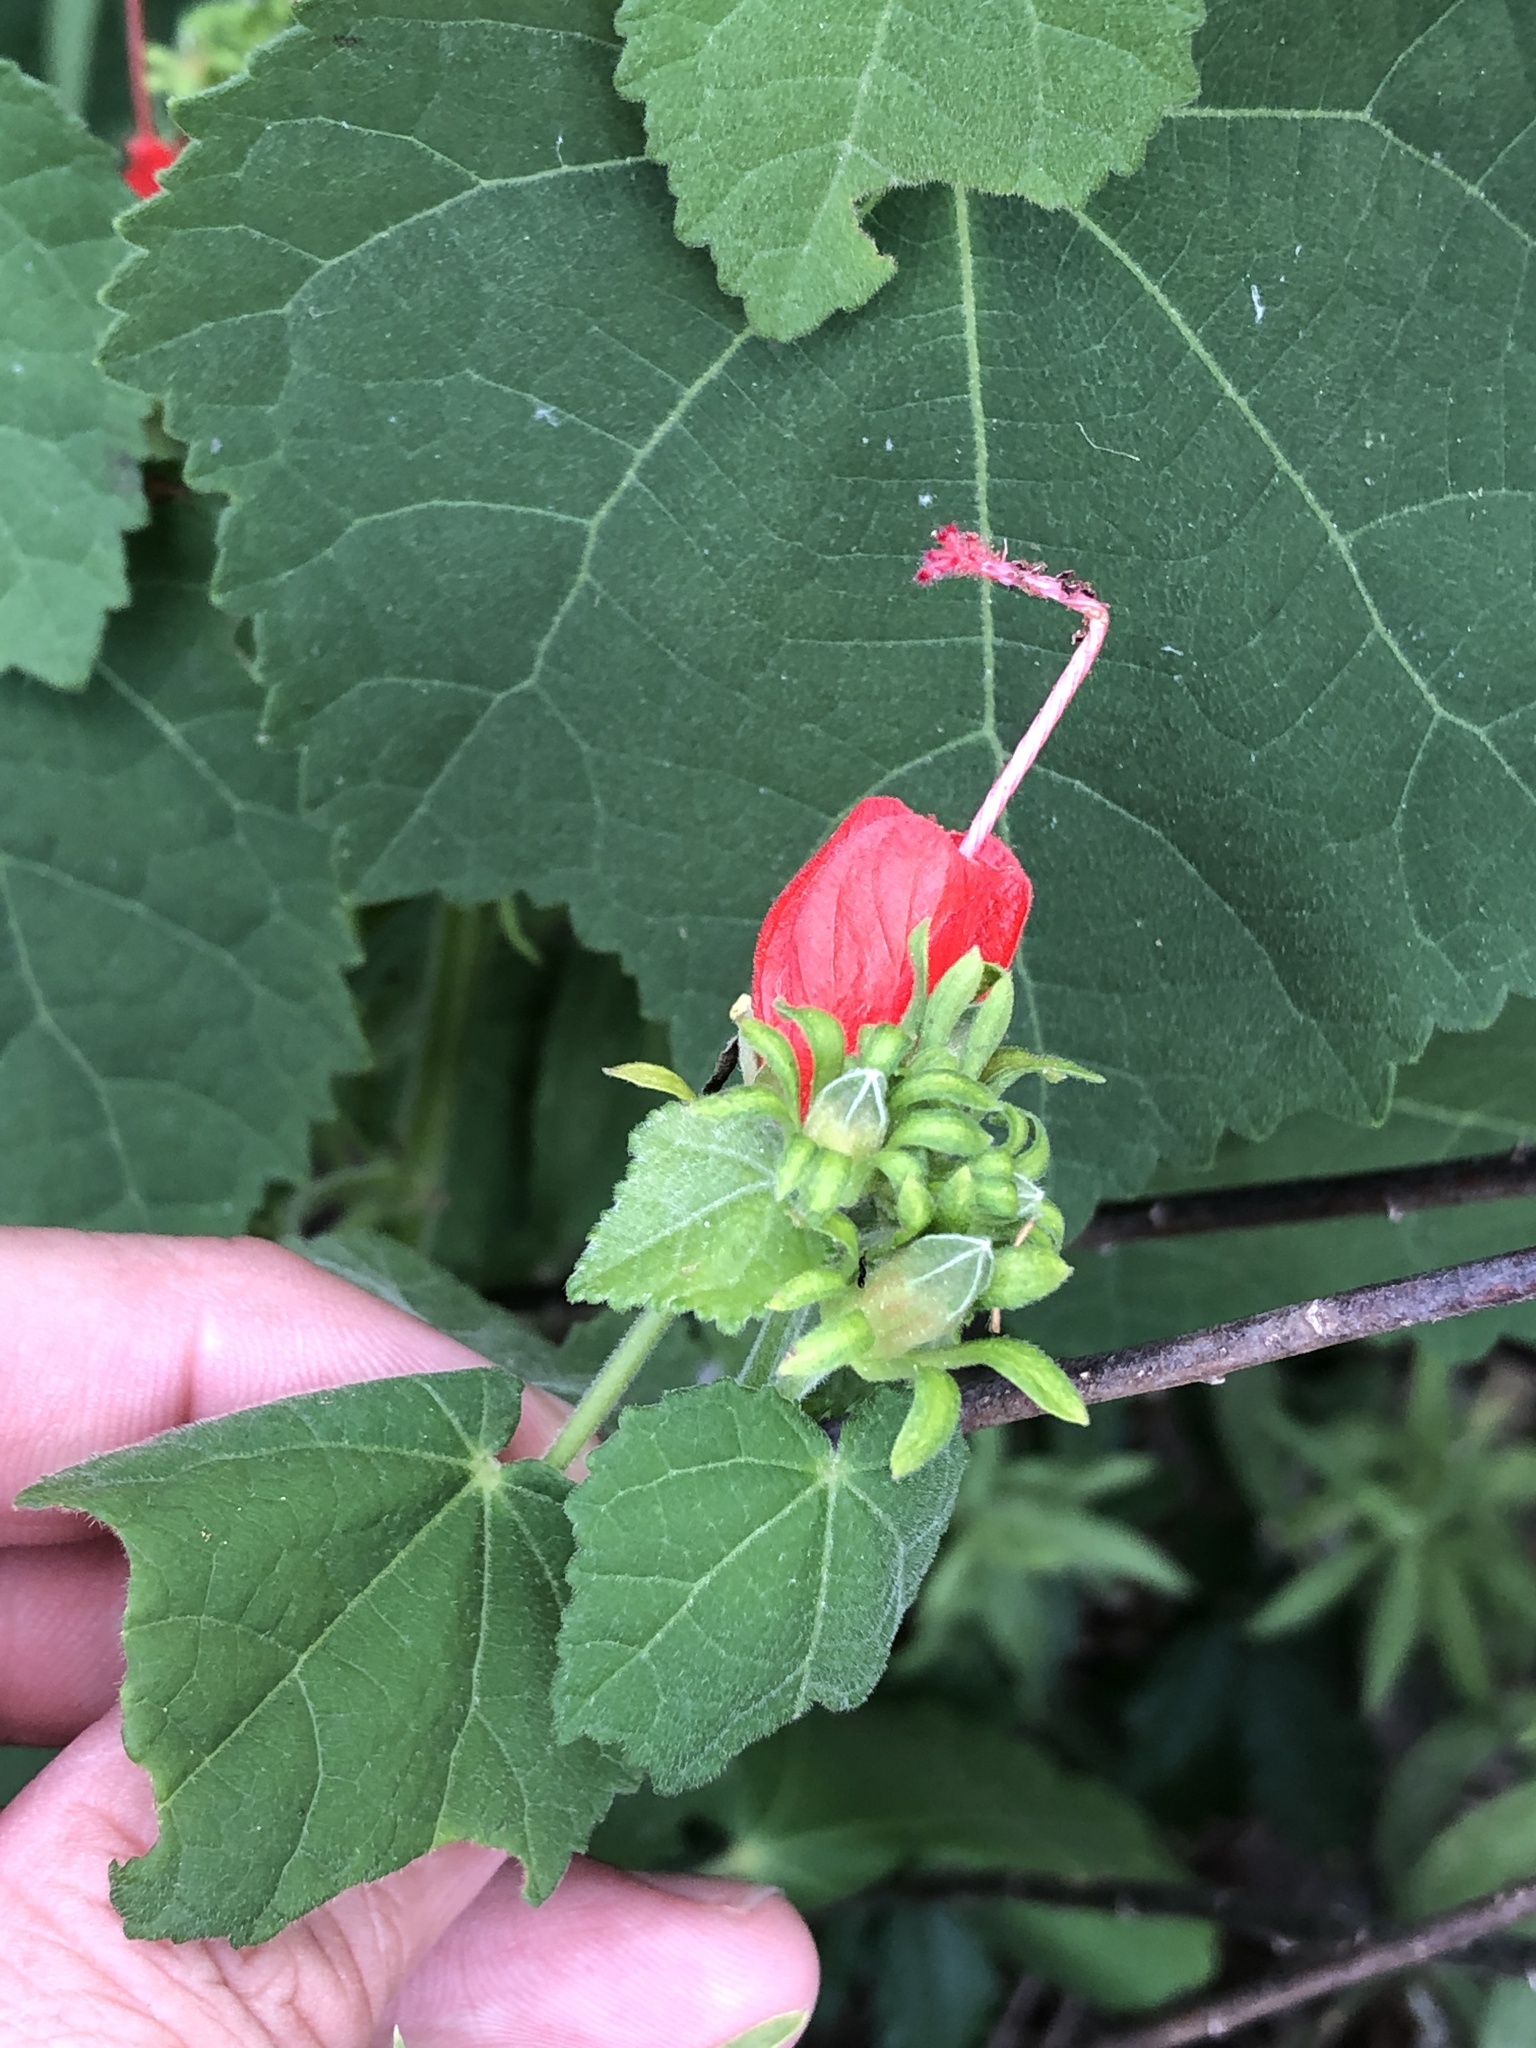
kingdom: Plantae
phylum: Tracheophyta
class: Magnoliopsida
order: Malvales
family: Malvaceae
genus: Malvaviscus
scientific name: Malvaviscus arboreus
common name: Wax mallow
